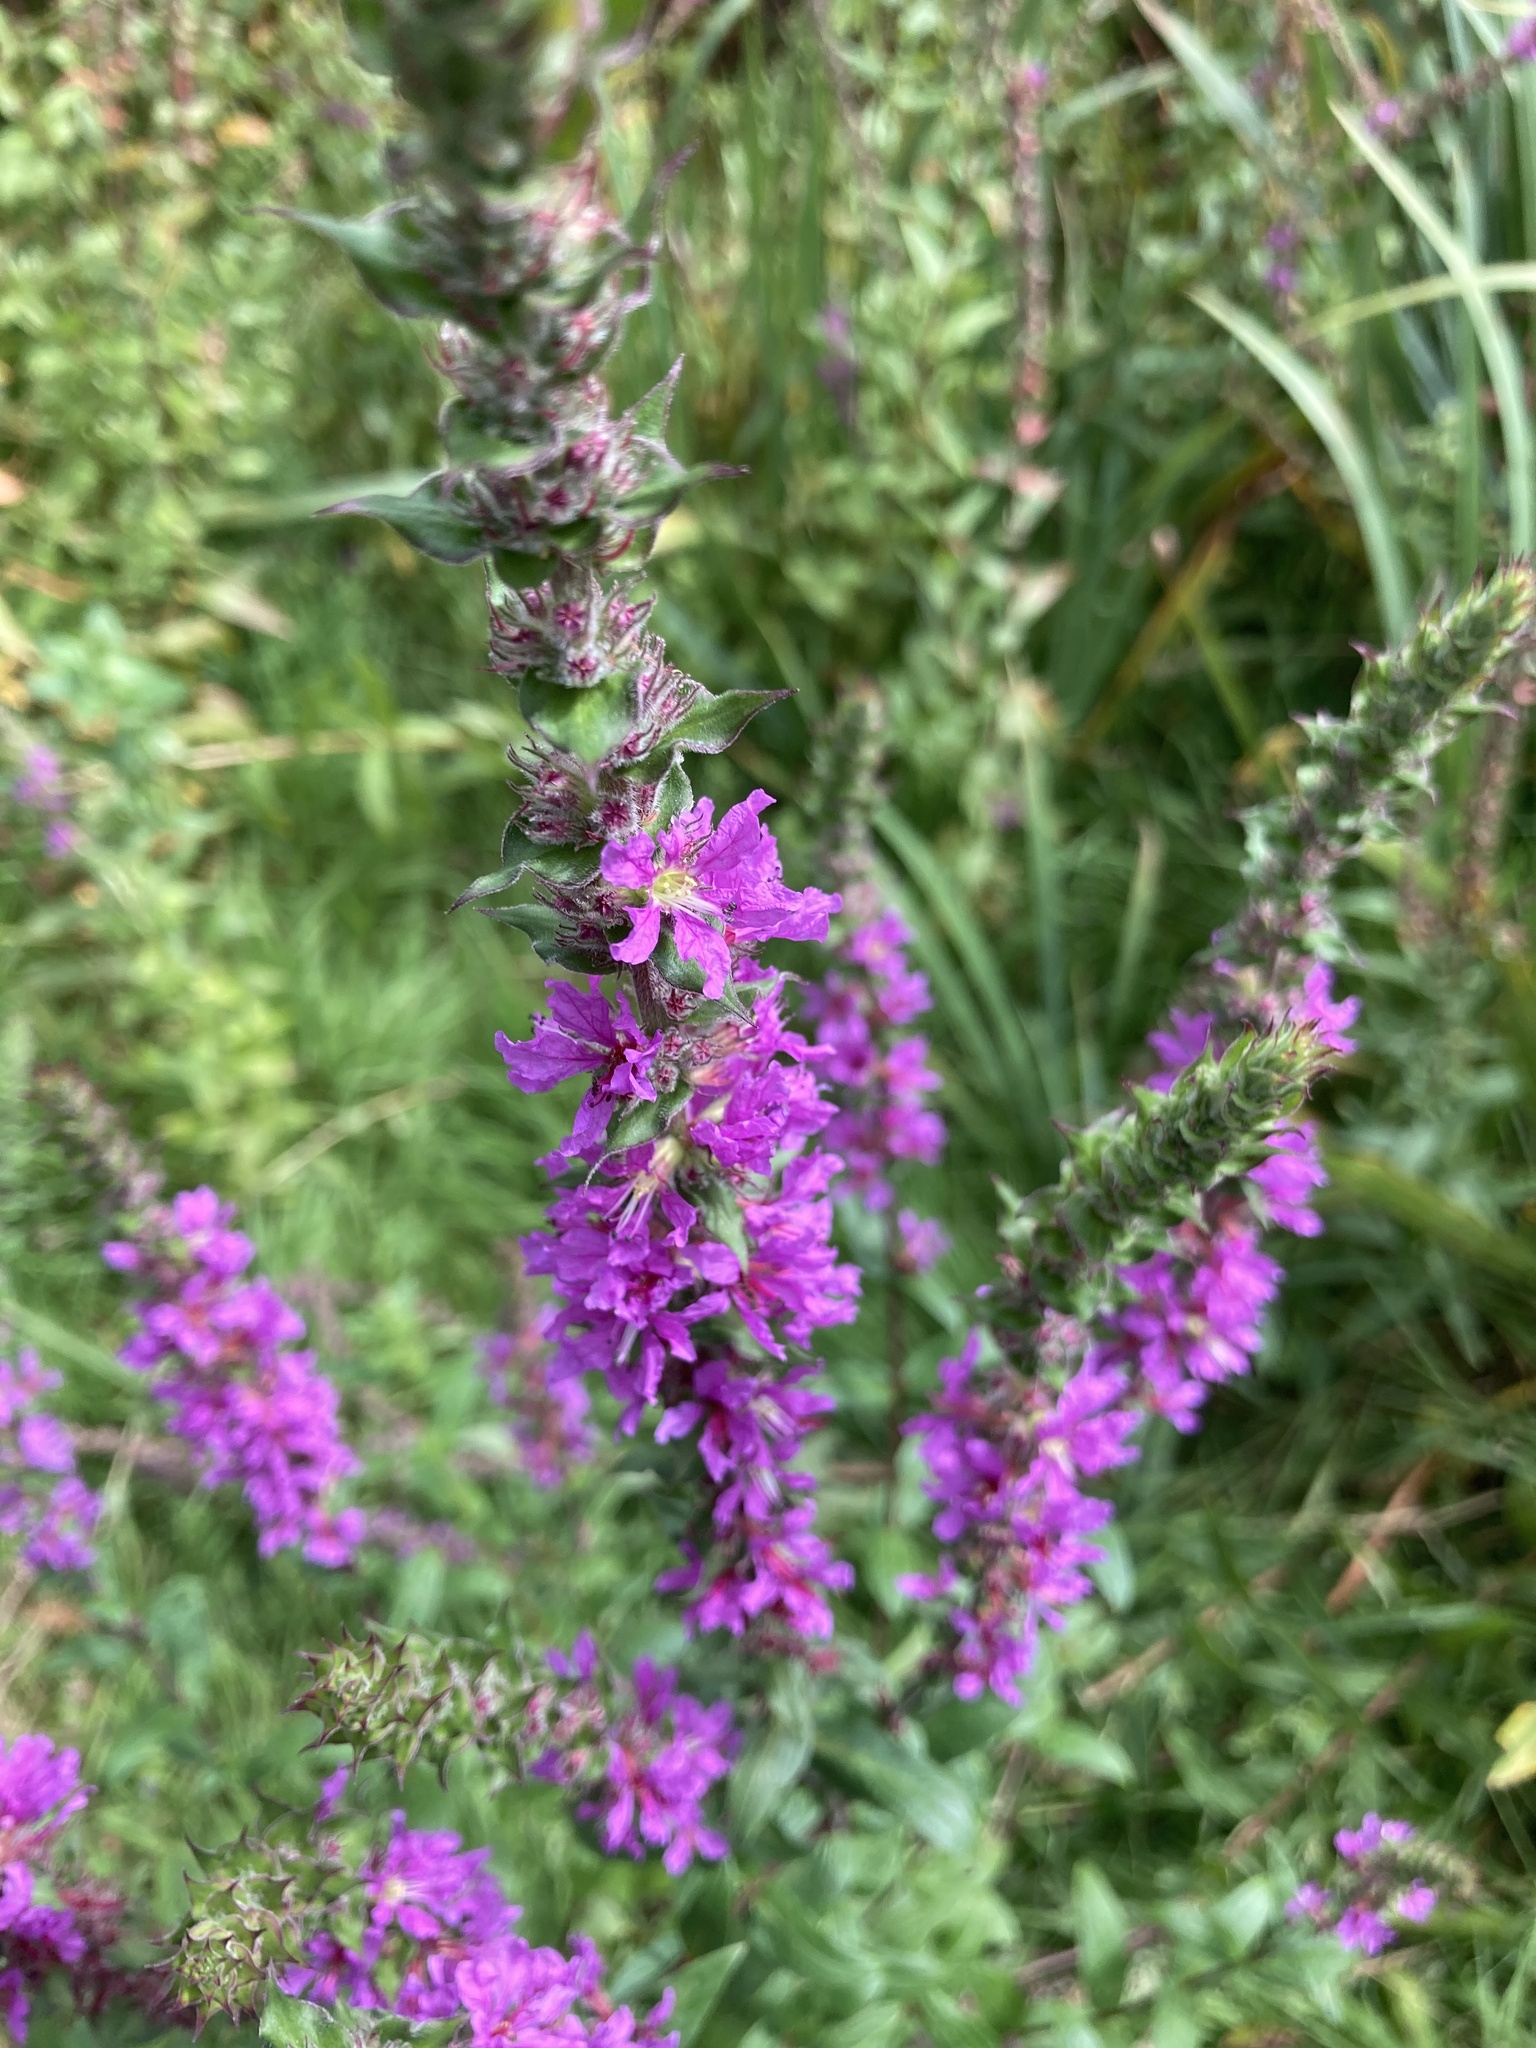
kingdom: Plantae
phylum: Tracheophyta
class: Magnoliopsida
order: Myrtales
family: Lythraceae
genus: Lythrum
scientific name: Lythrum salicaria
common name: Purple loosestrife
